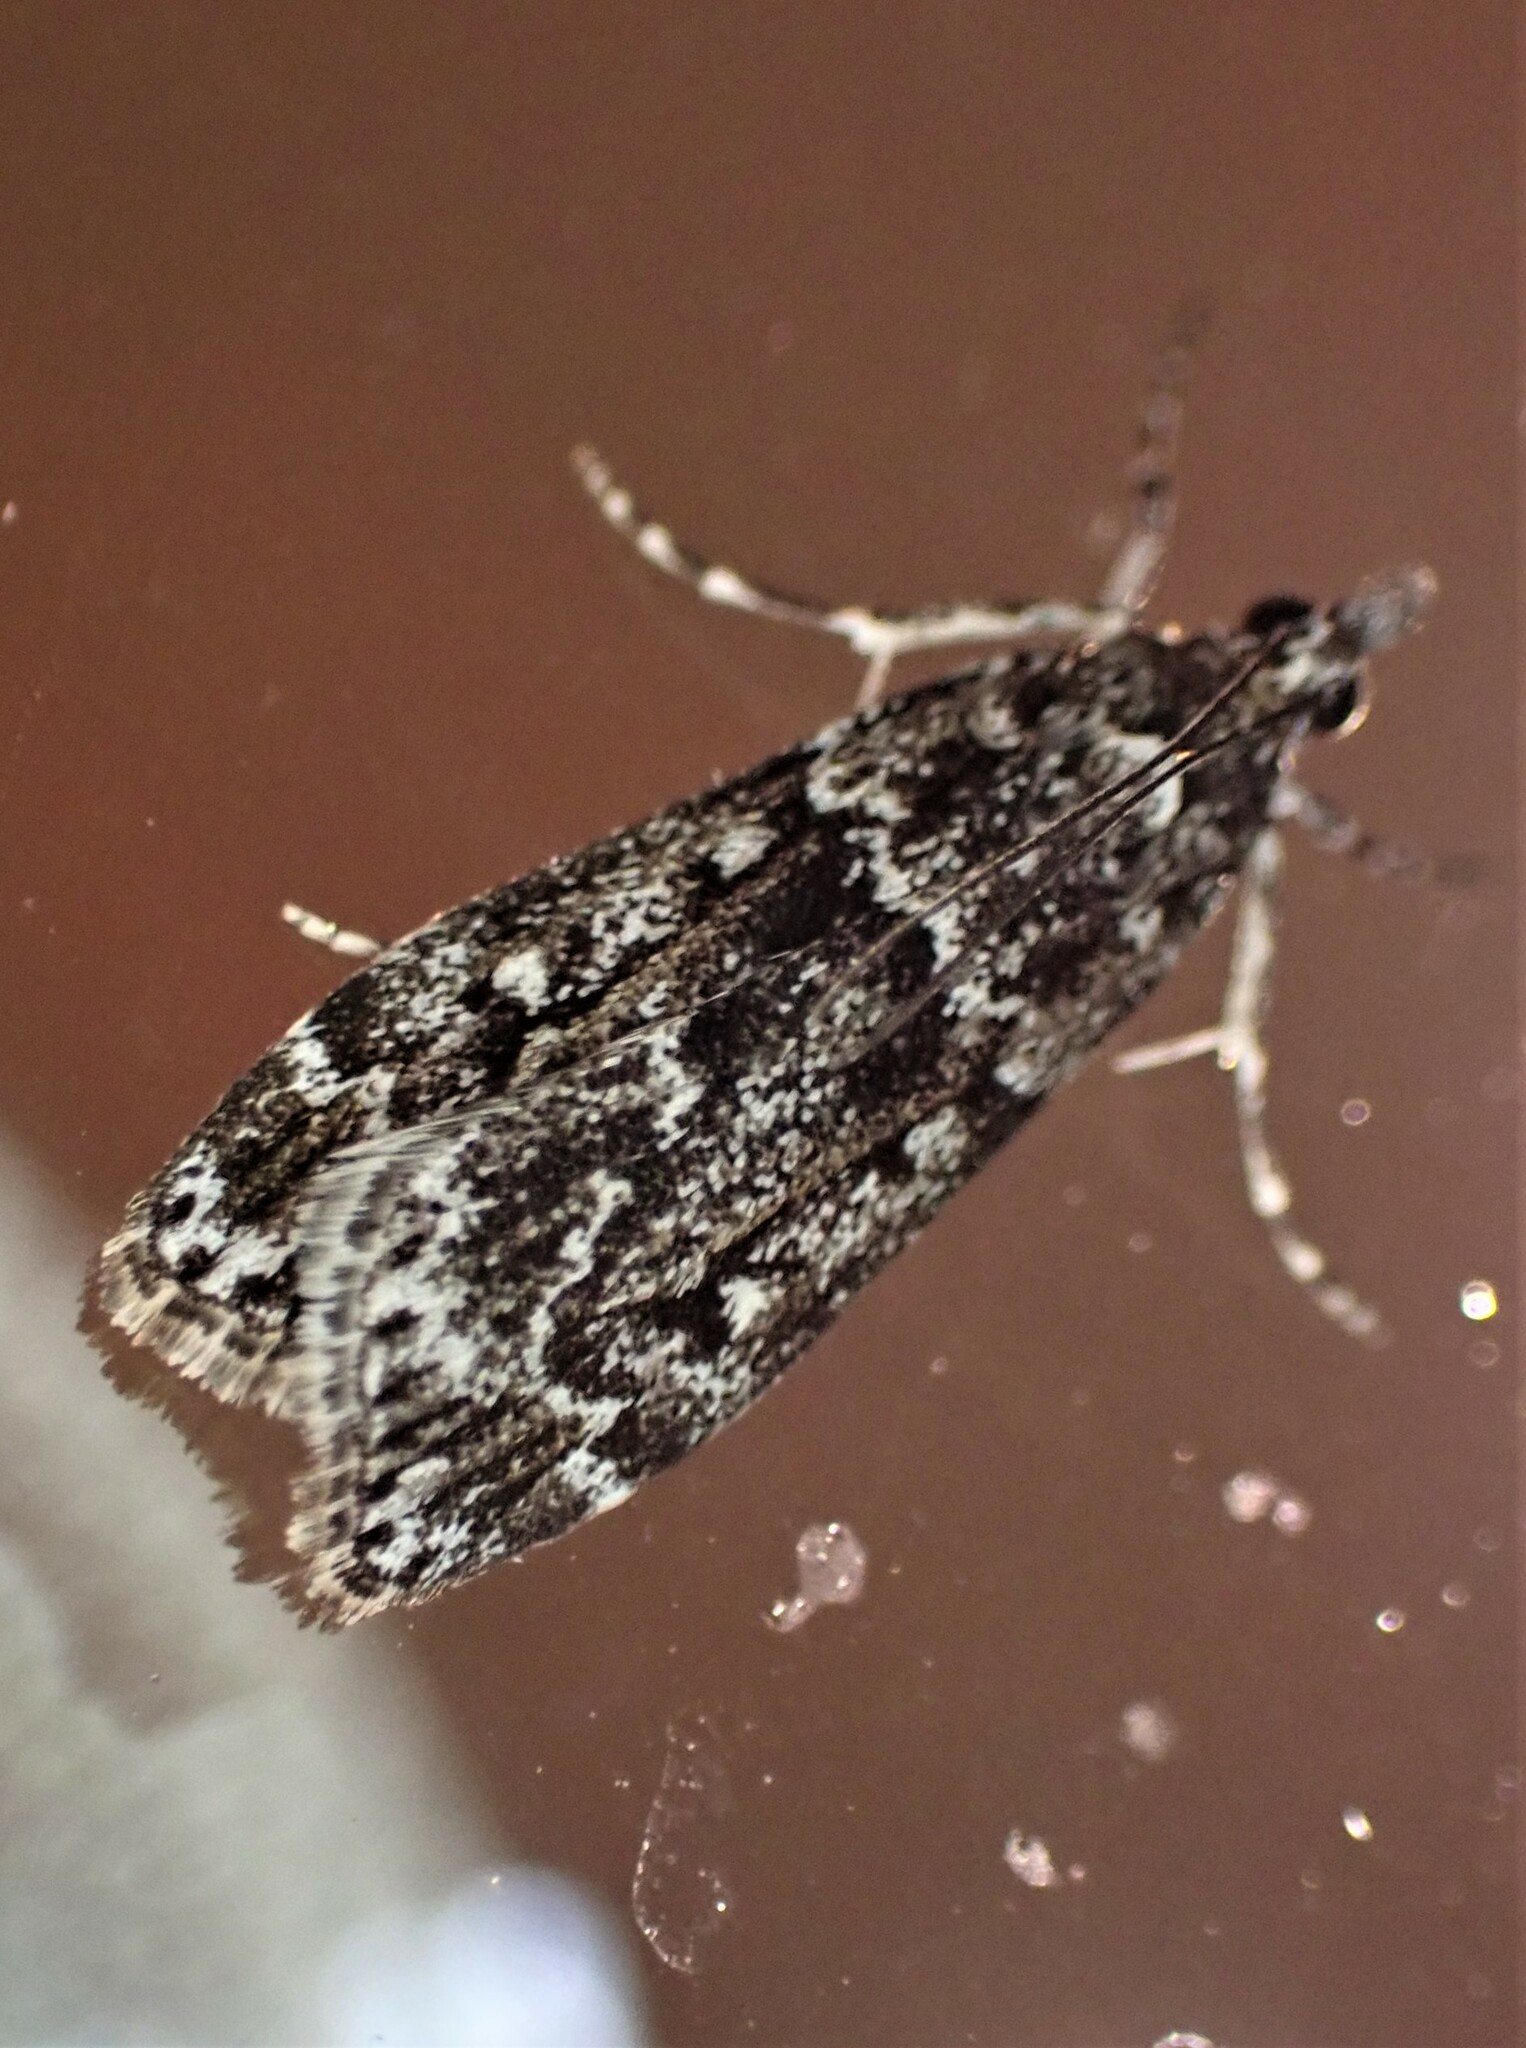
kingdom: Animalia
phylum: Arthropoda
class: Insecta
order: Lepidoptera
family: Crambidae
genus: Eudonia
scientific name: Eudonia philerga
